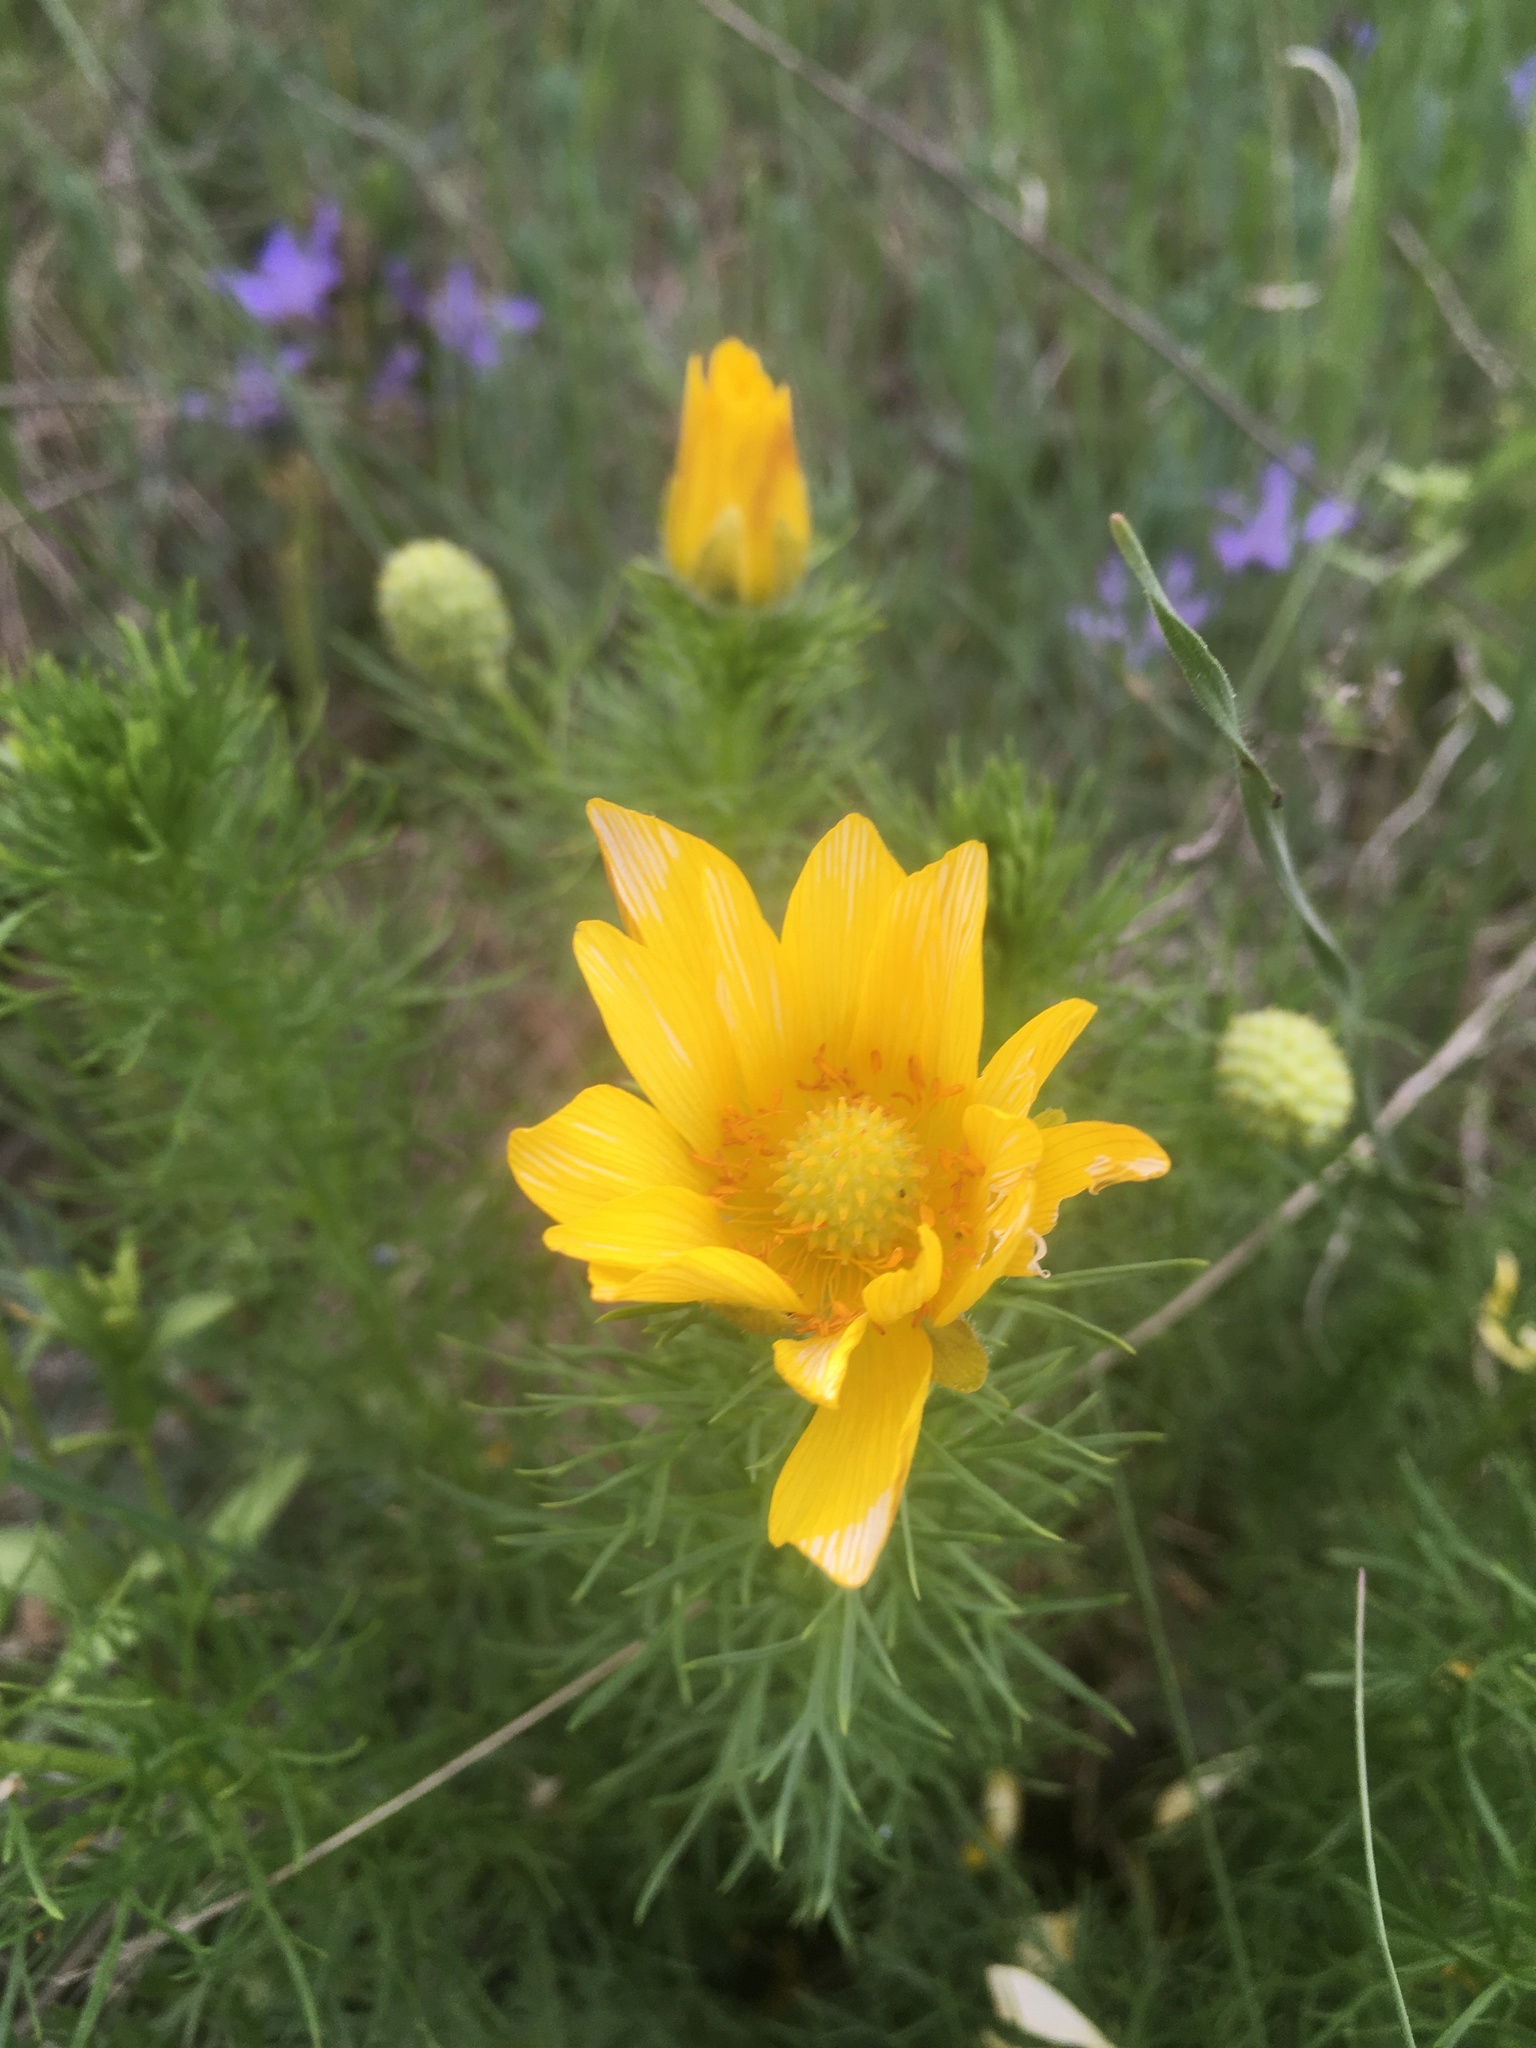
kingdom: Plantae
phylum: Tracheophyta
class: Magnoliopsida
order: Ranunculales
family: Ranunculaceae
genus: Adonis
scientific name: Adonis vernalis
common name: Yellow pheasants-eye
